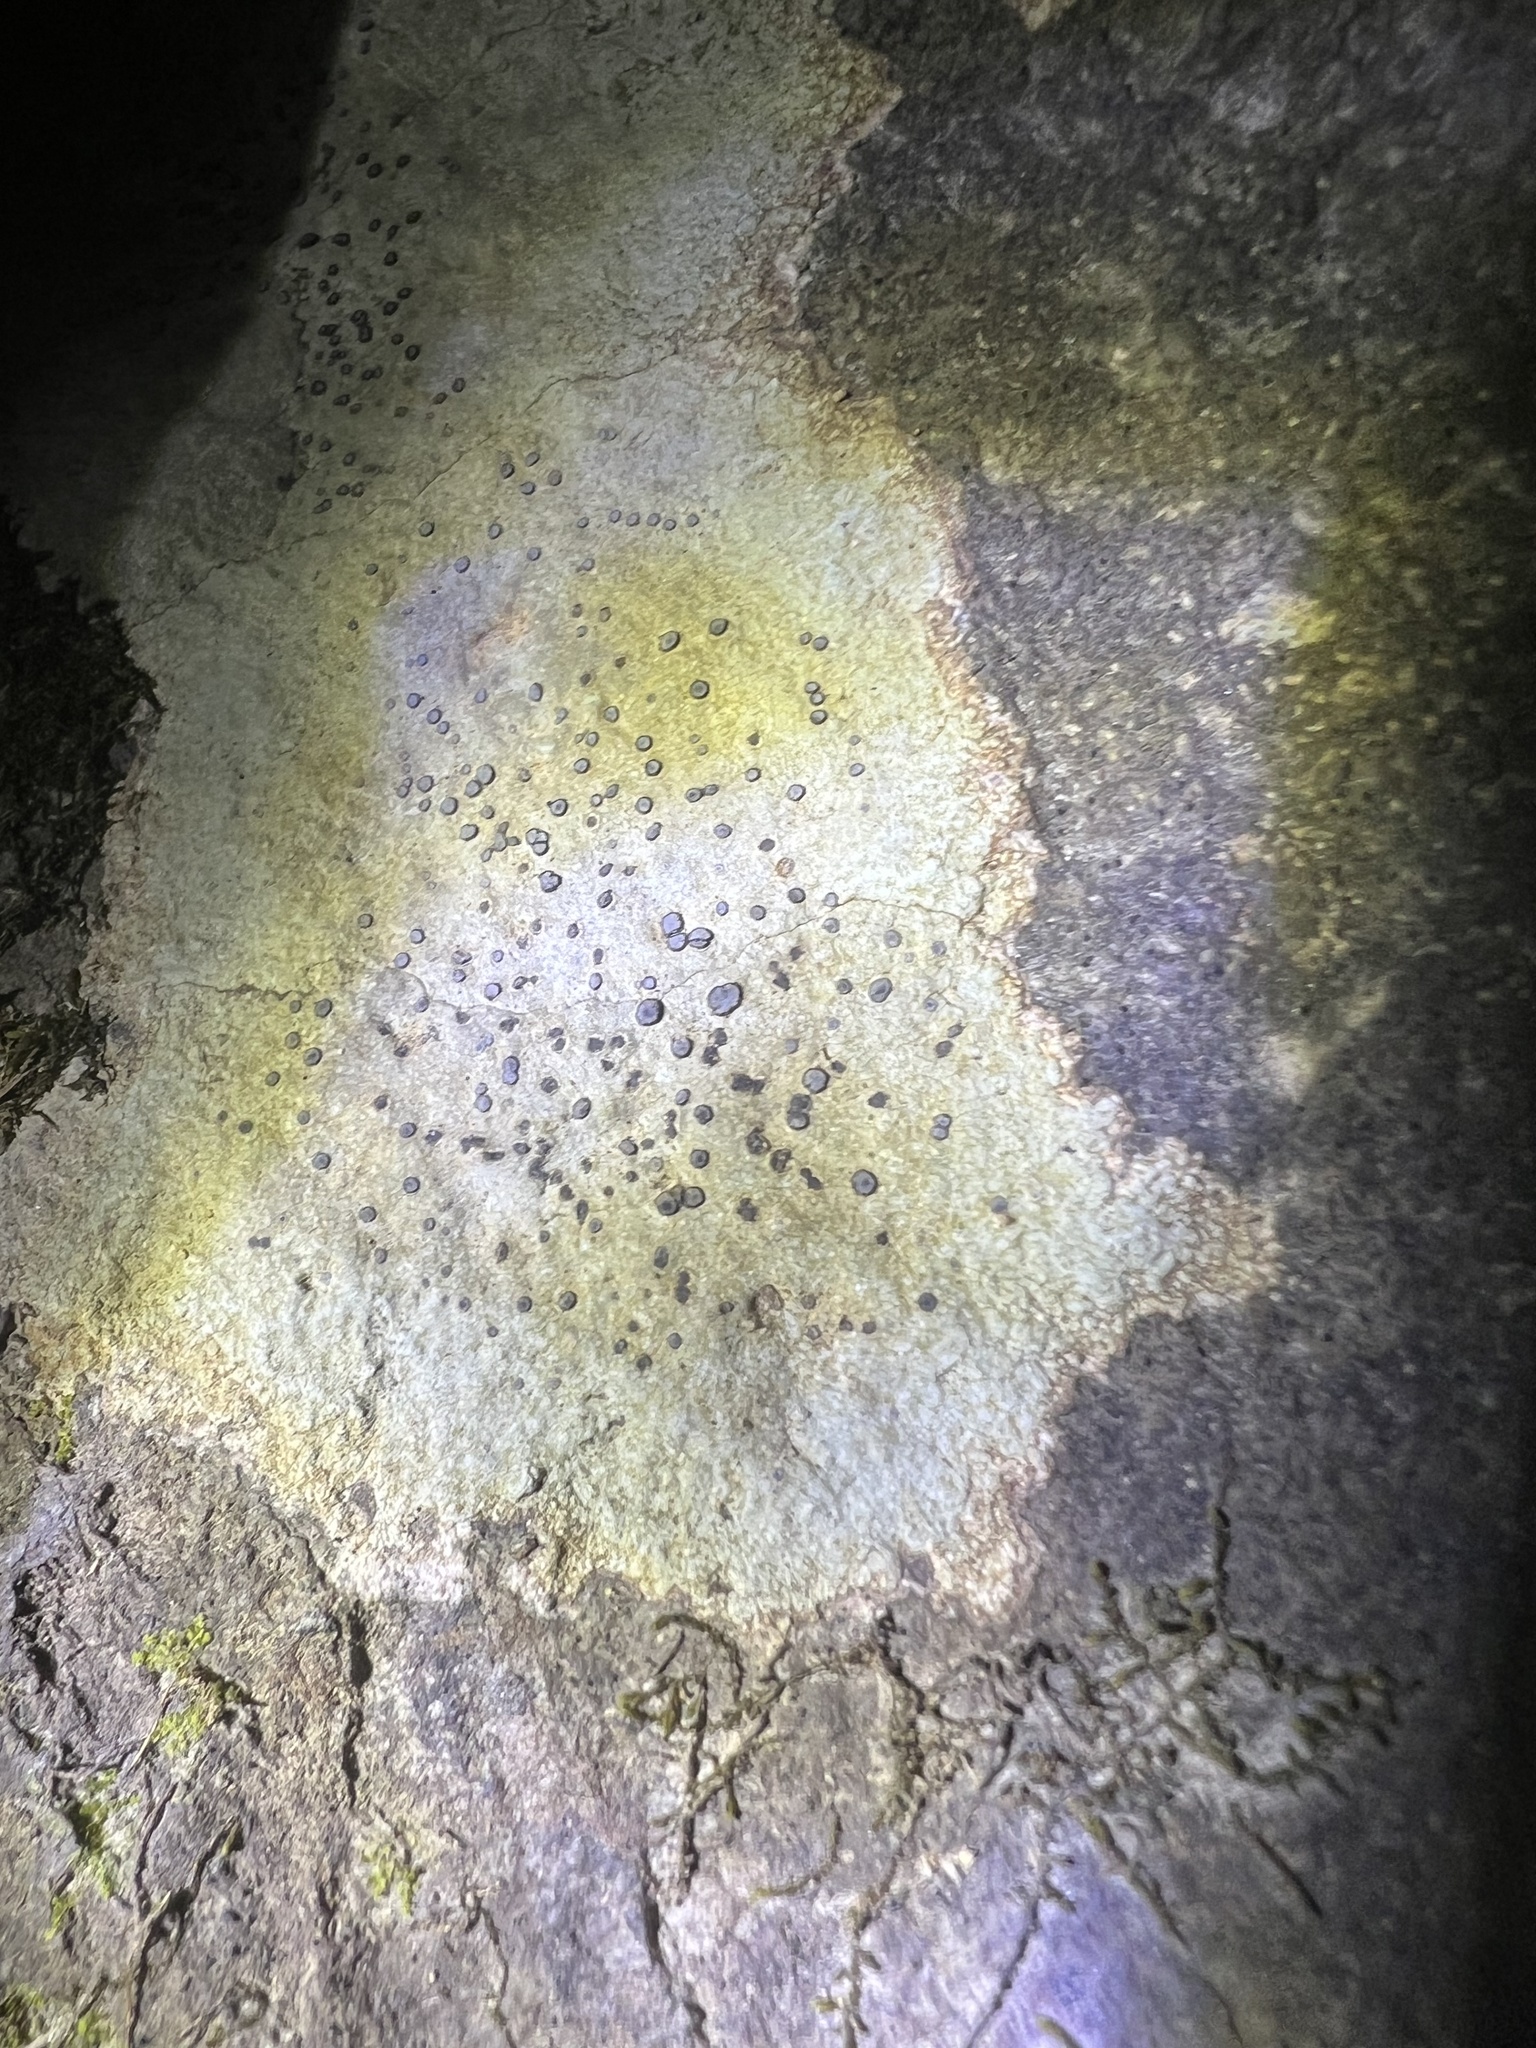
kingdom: Fungi
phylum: Ascomycota
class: Lecanoromycetes
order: Lecideales
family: Lecideaceae
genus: Porpidia
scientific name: Porpidia albocaerulescens
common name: Smokey-eyed boulder lichen
